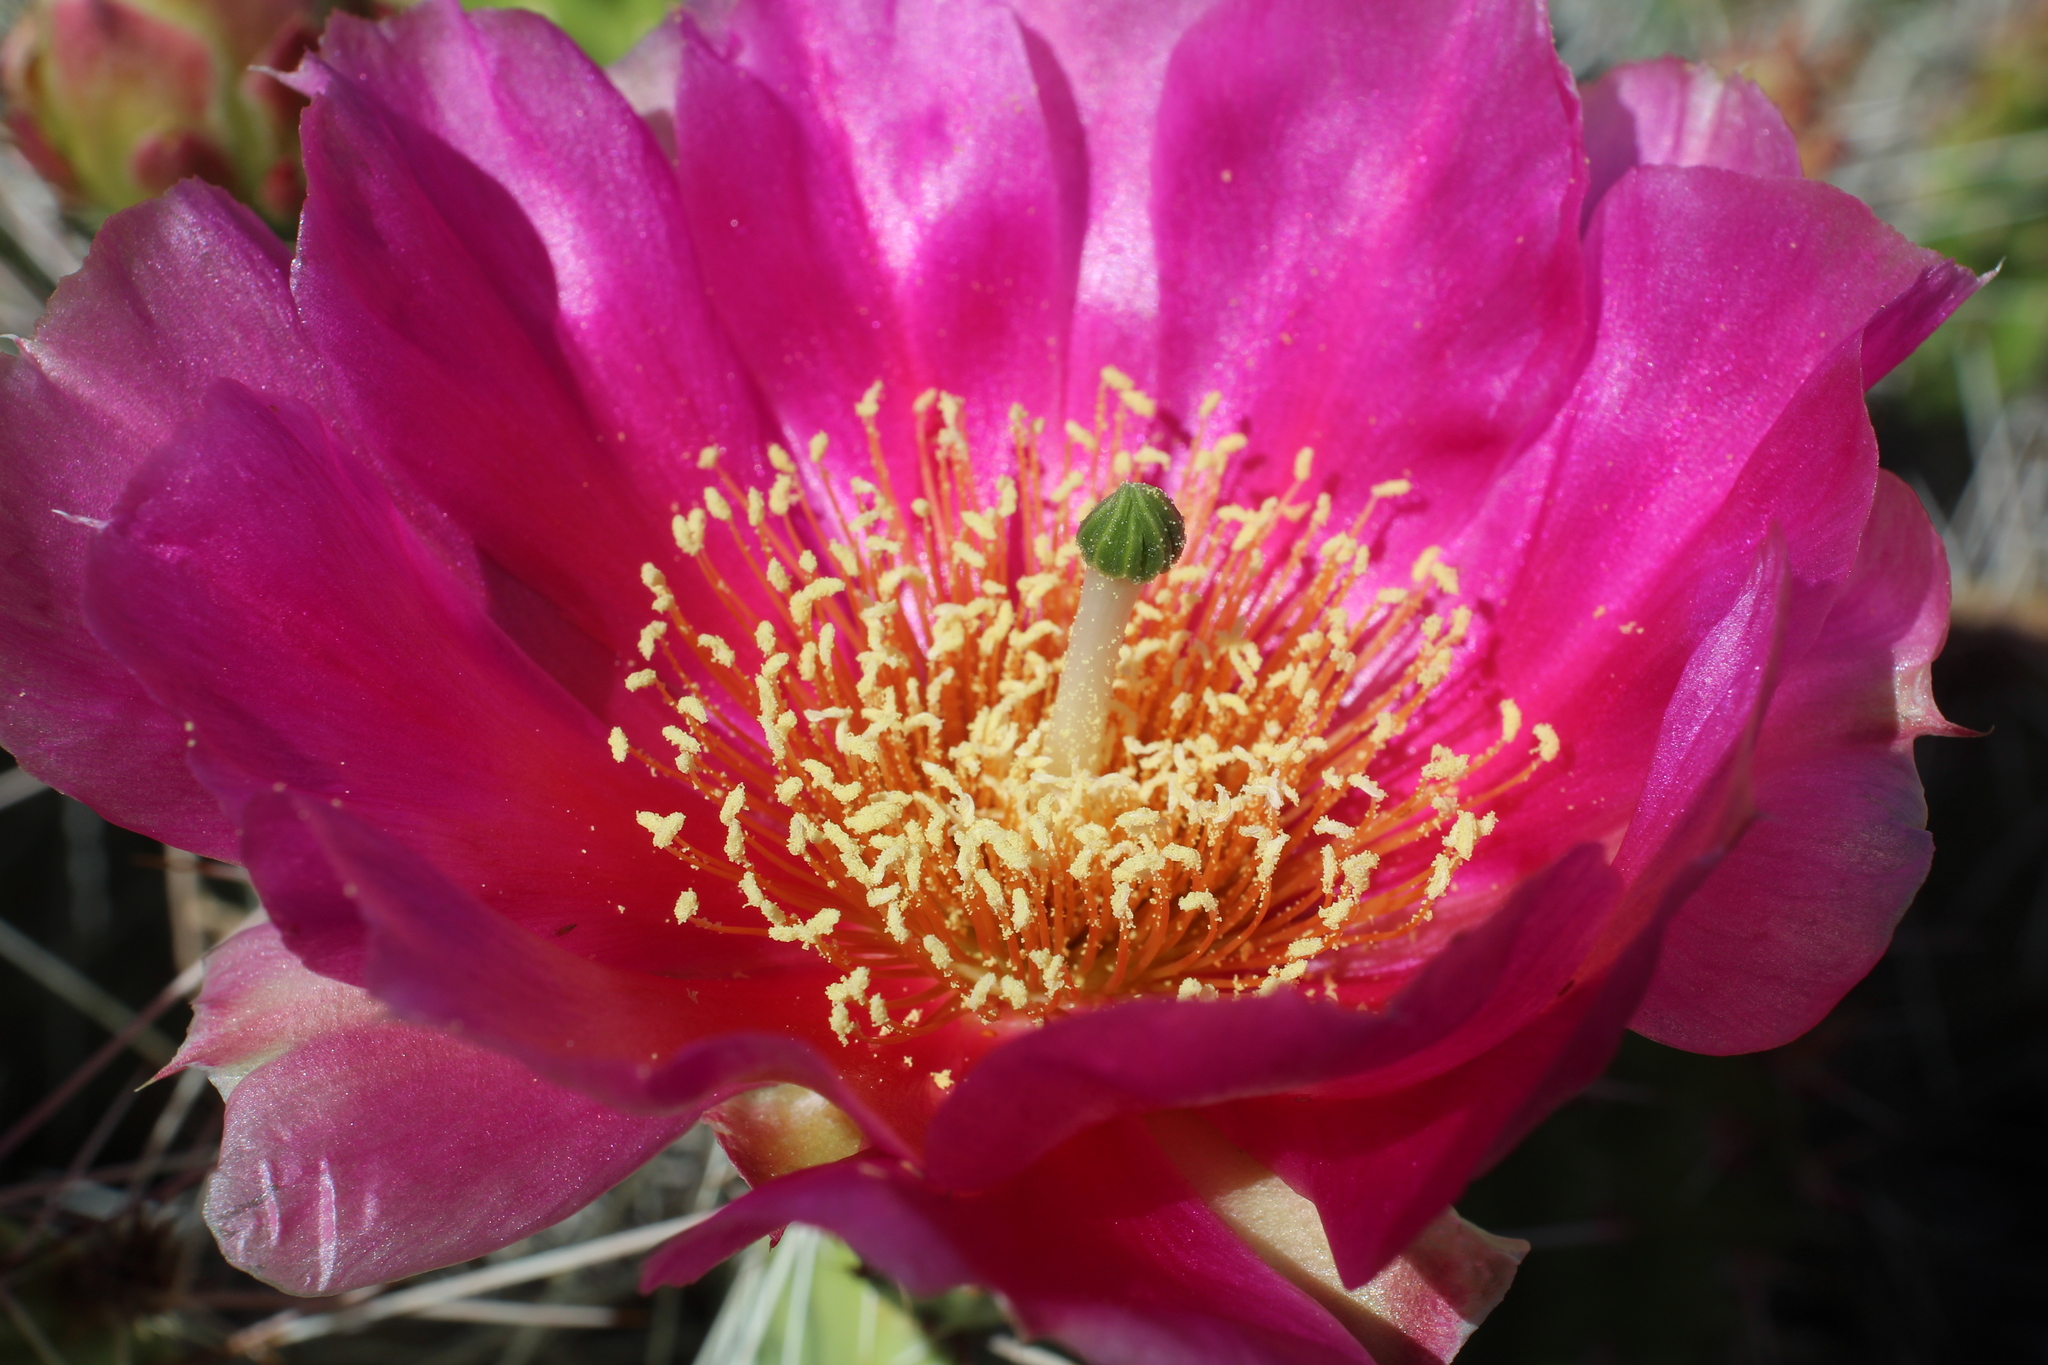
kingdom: Plantae
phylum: Tracheophyta
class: Magnoliopsida
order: Caryophyllales
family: Cactaceae
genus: Opuntia
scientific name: Opuntia polyacantha
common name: Plains prickly-pear
